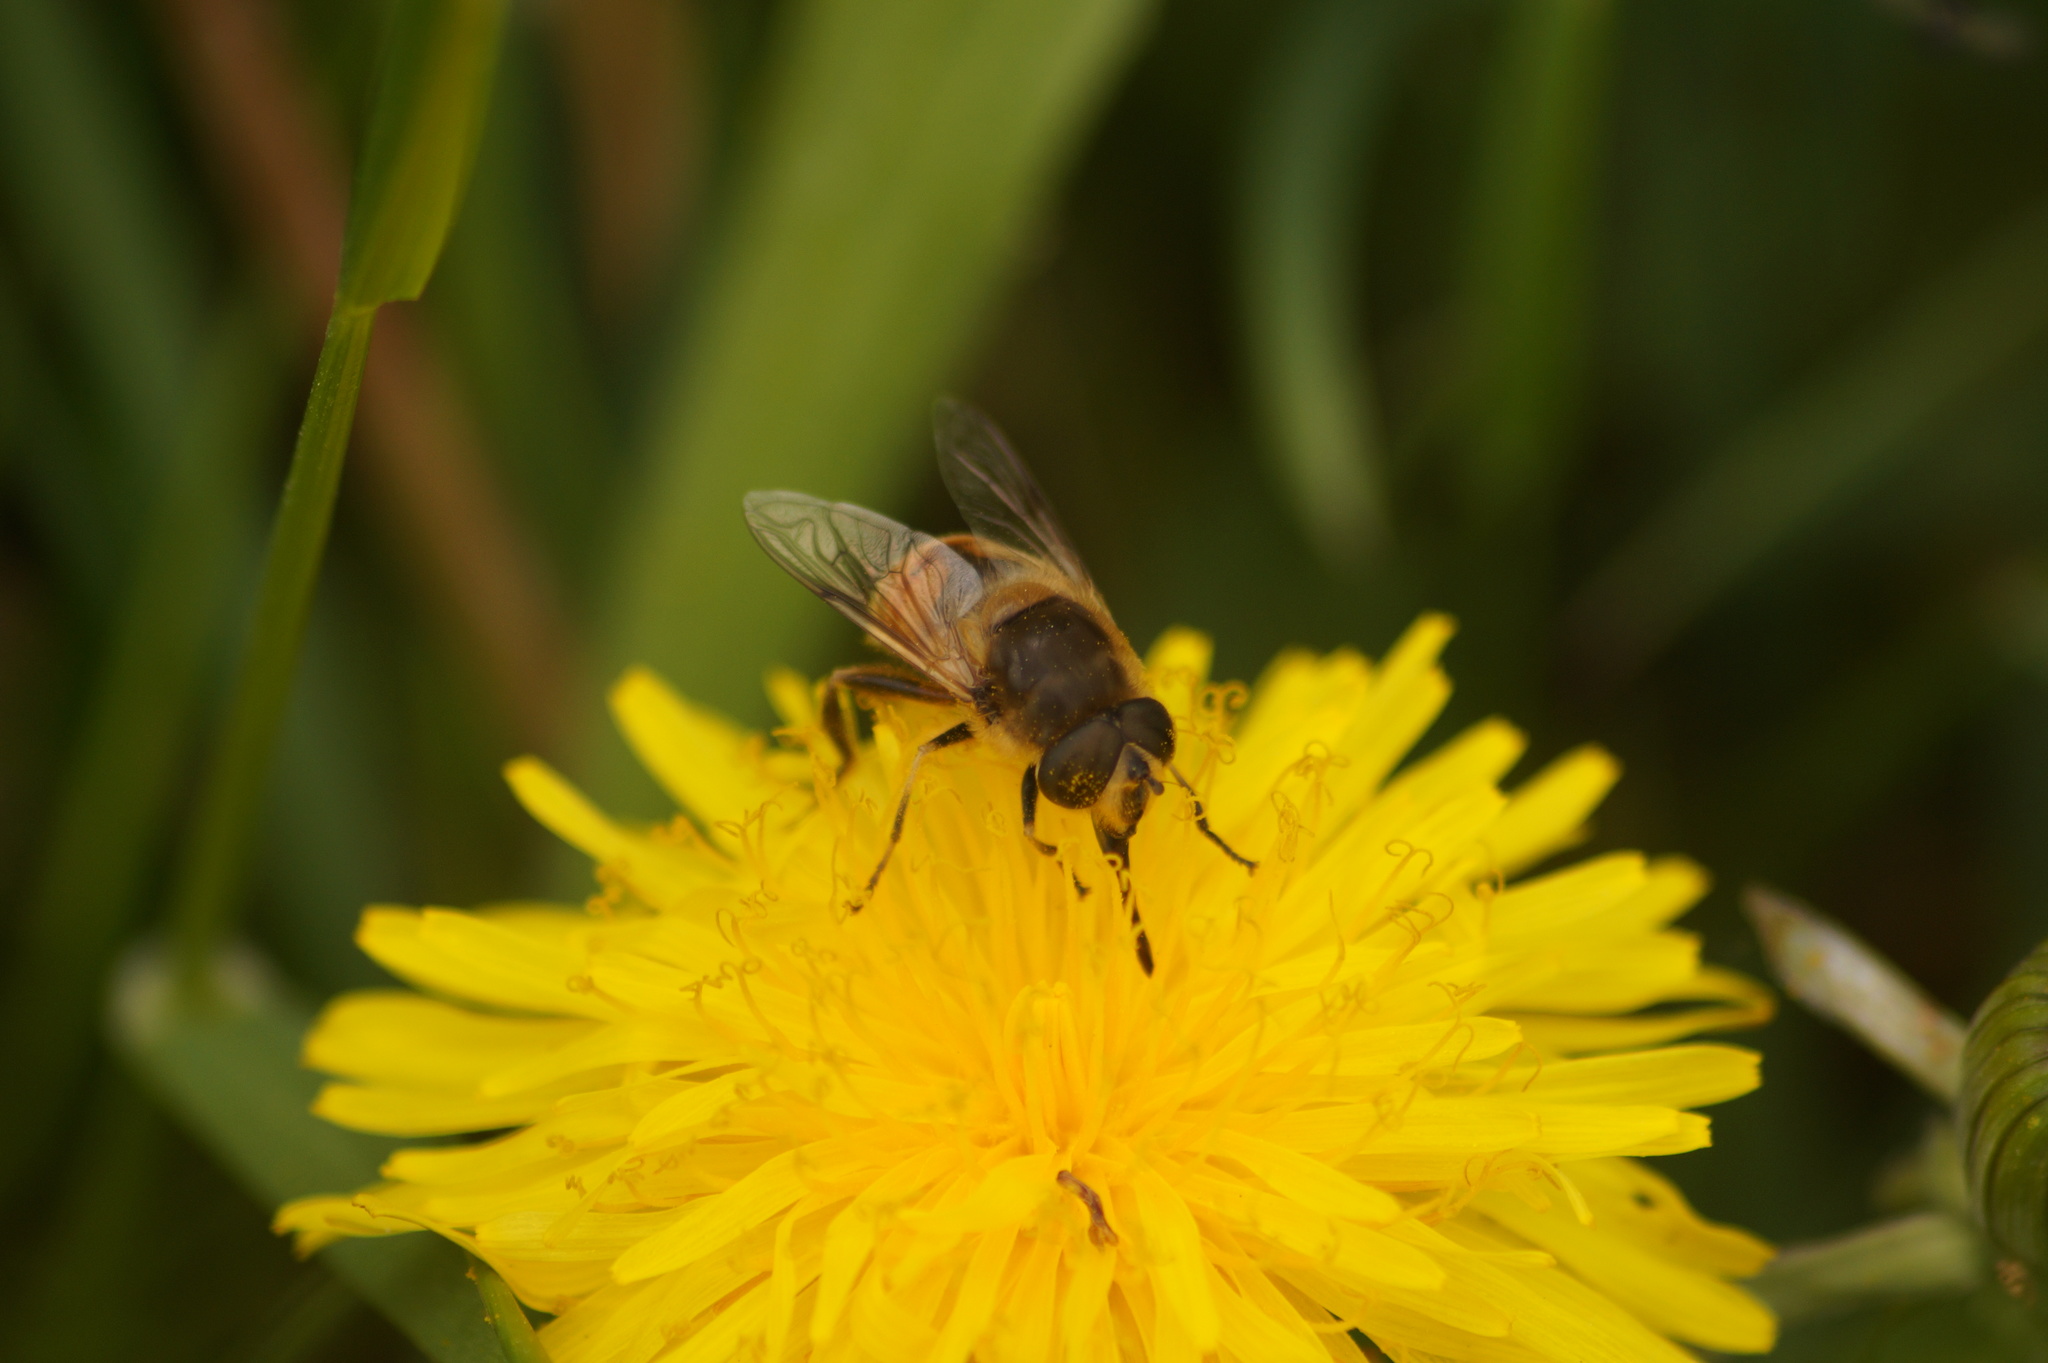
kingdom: Animalia
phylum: Arthropoda
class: Insecta
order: Diptera
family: Syrphidae
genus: Eristalis
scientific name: Eristalis tenax
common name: Drone fly
